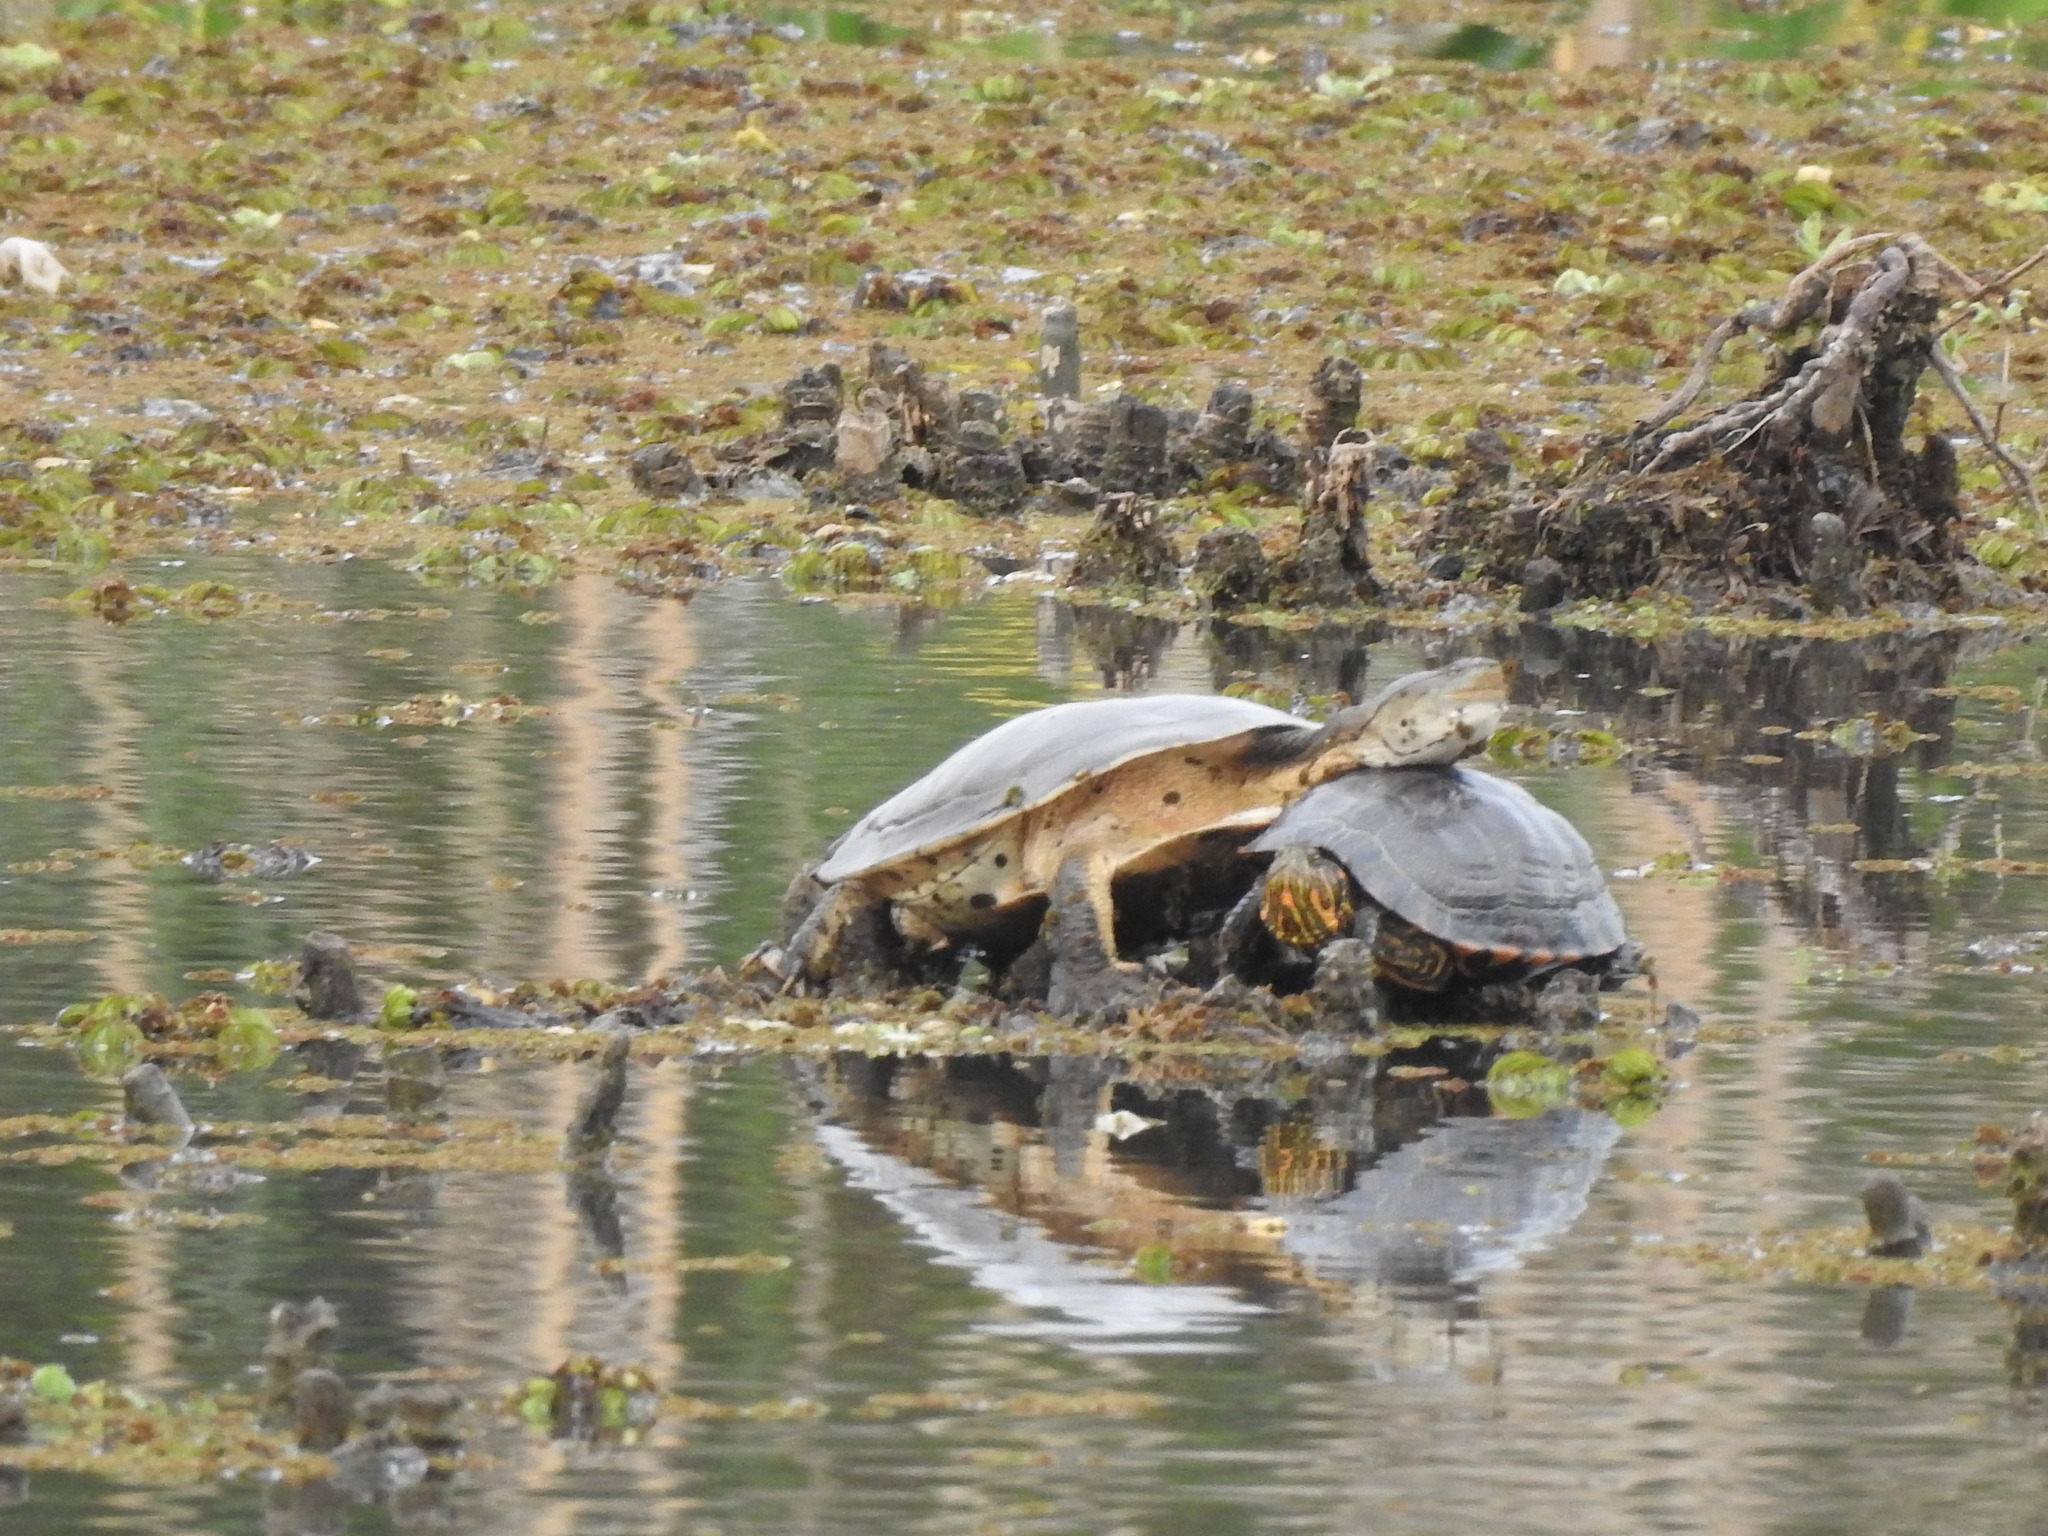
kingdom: Animalia
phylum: Chordata
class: Testudines
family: Chelidae
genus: Phrynops
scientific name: Phrynops hilarii
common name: Side-necked turtle of saint hillaire
